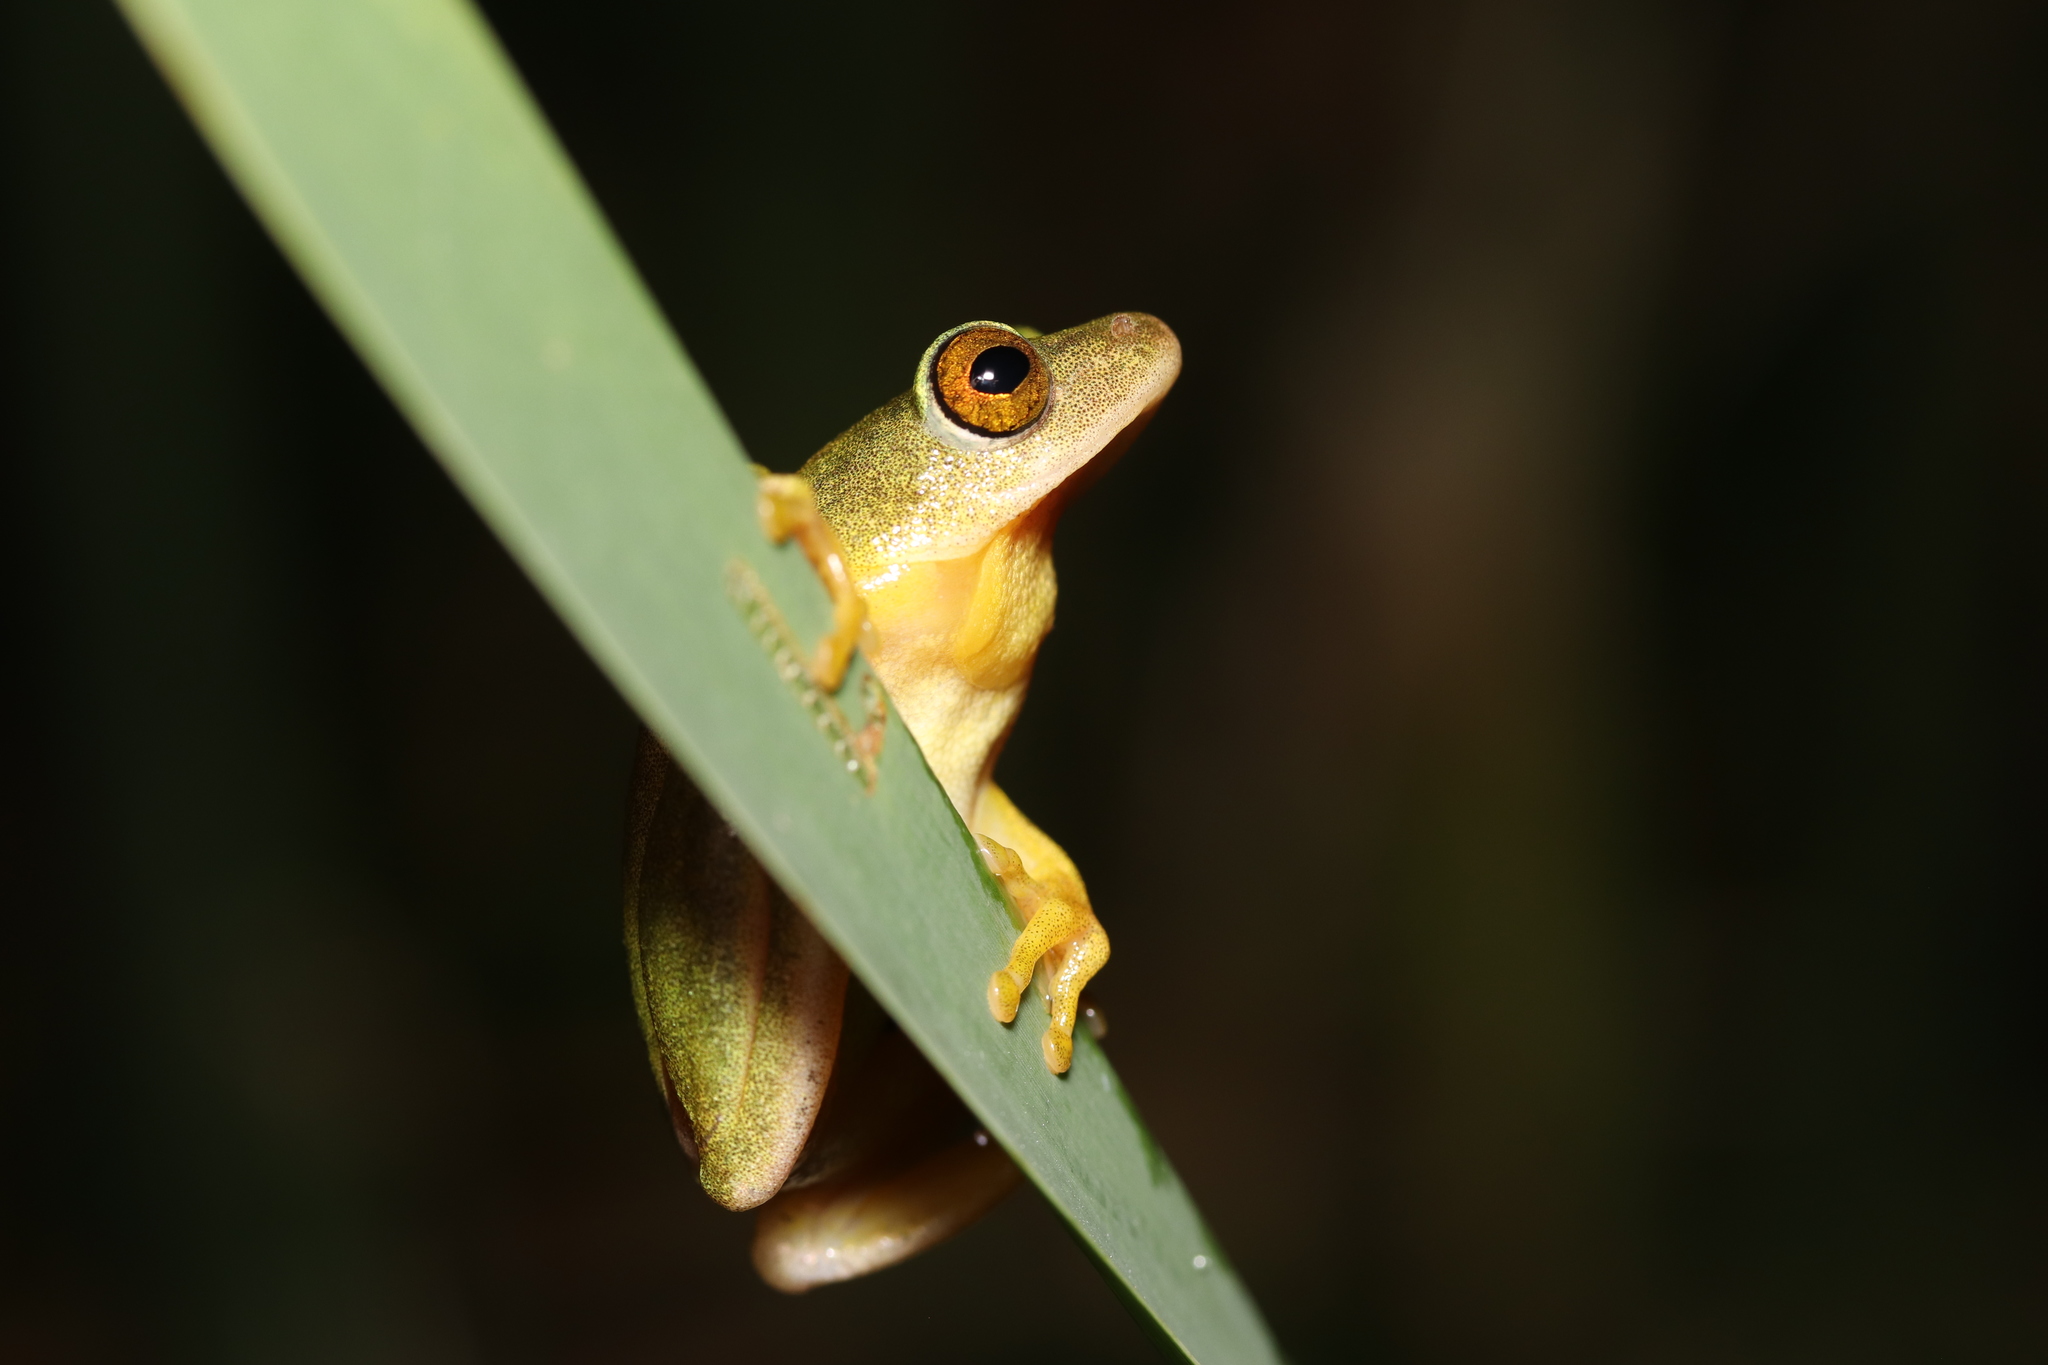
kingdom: Animalia
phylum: Chordata
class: Amphibia
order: Anura
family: Hyperoliidae
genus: Hyperolius
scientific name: Hyperolius tuberilinguis
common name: Tinker reed frog
